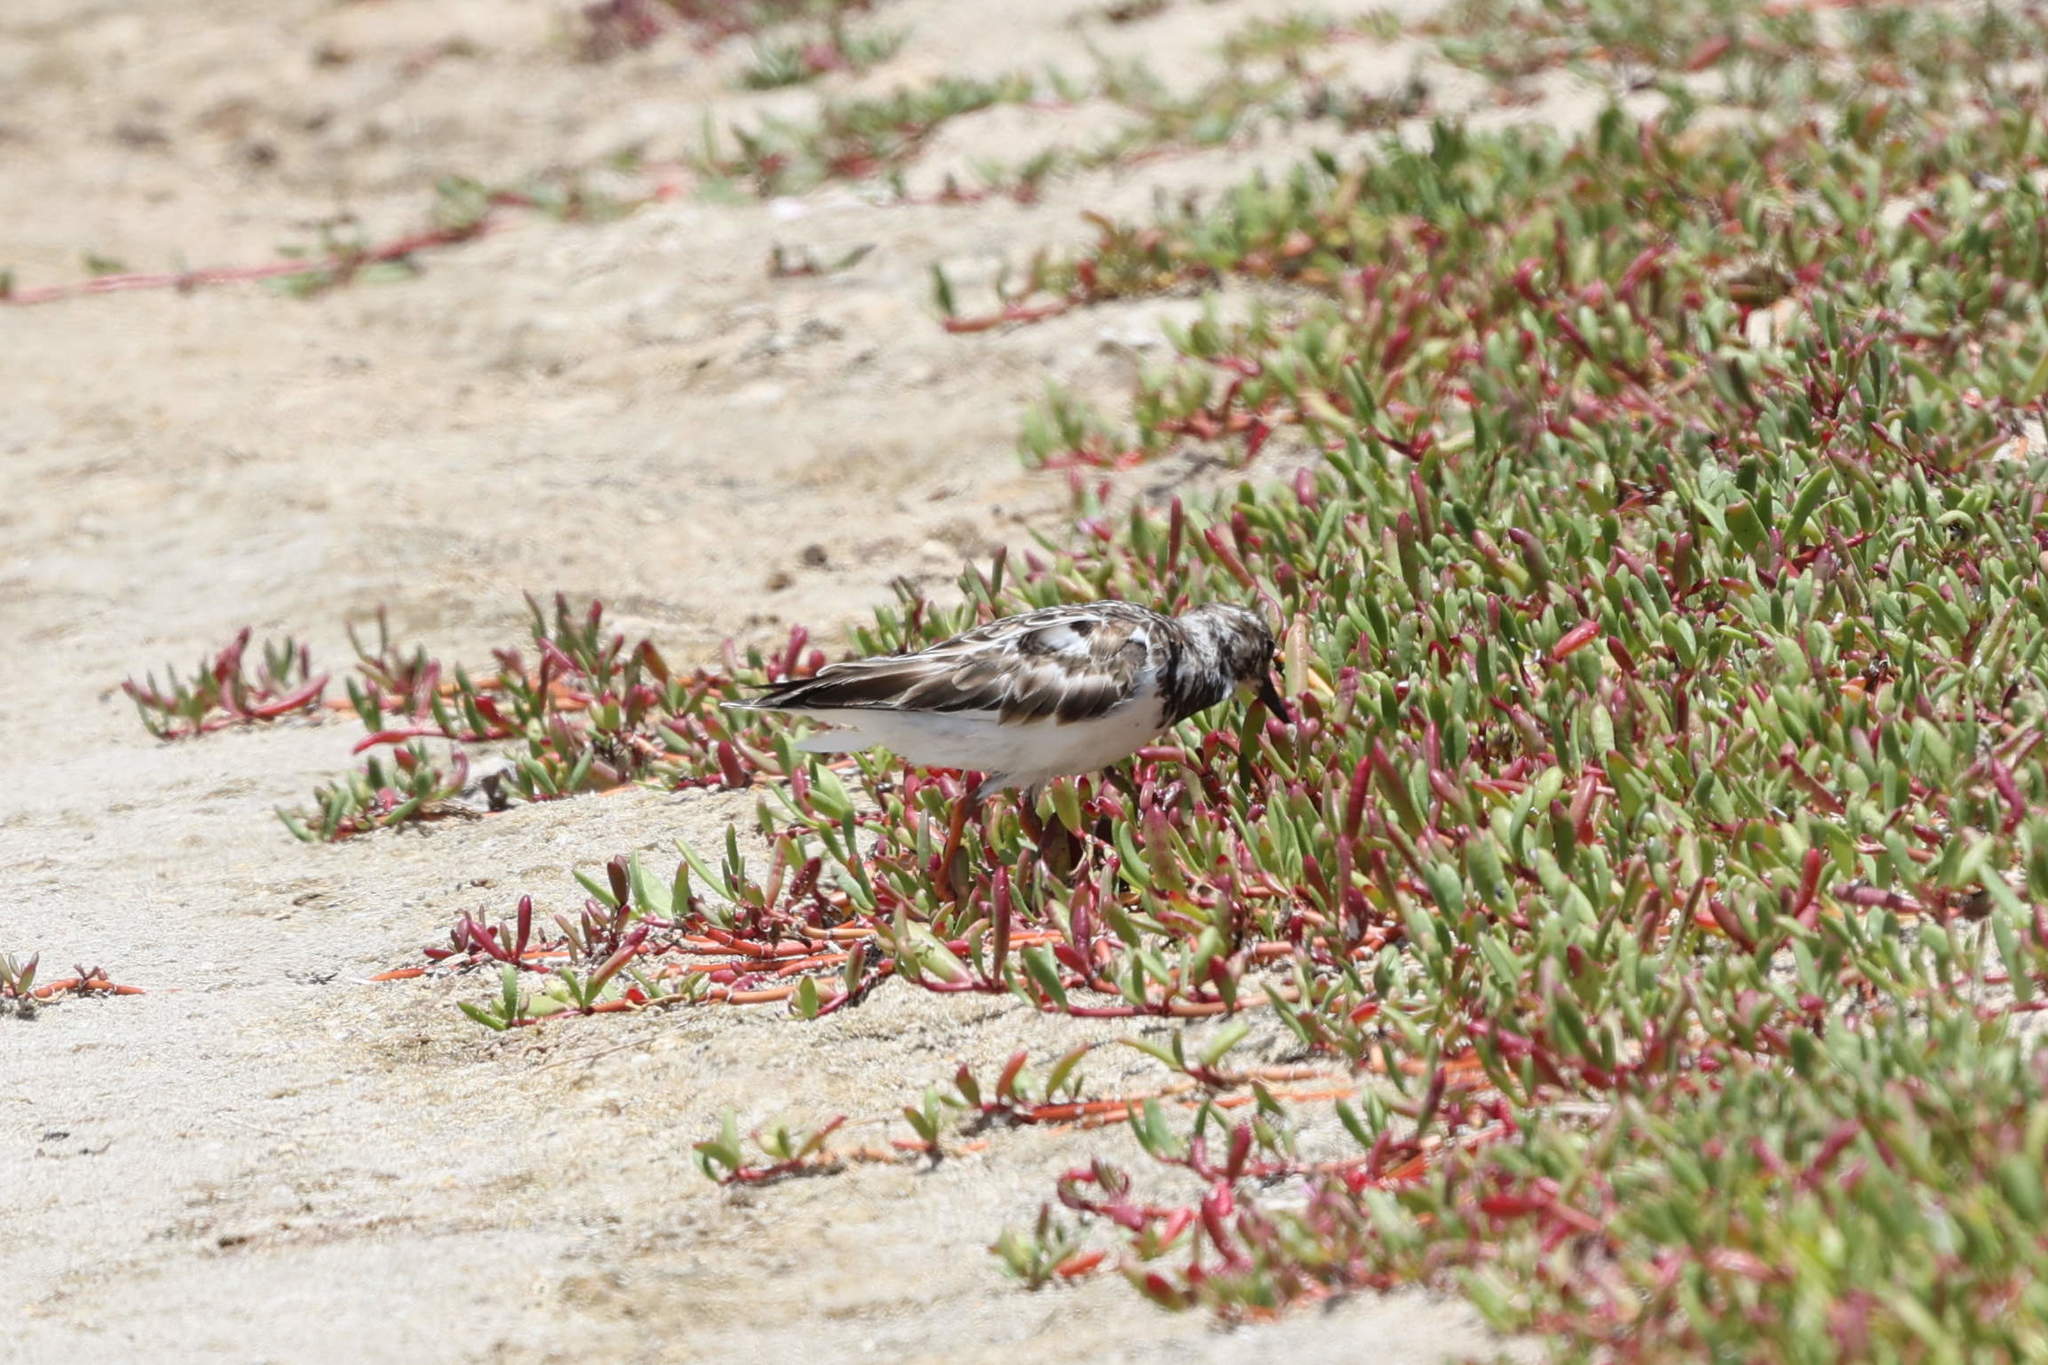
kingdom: Animalia
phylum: Chordata
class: Aves
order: Charadriiformes
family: Scolopacidae
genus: Arenaria
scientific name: Arenaria interpres
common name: Ruddy turnstone
